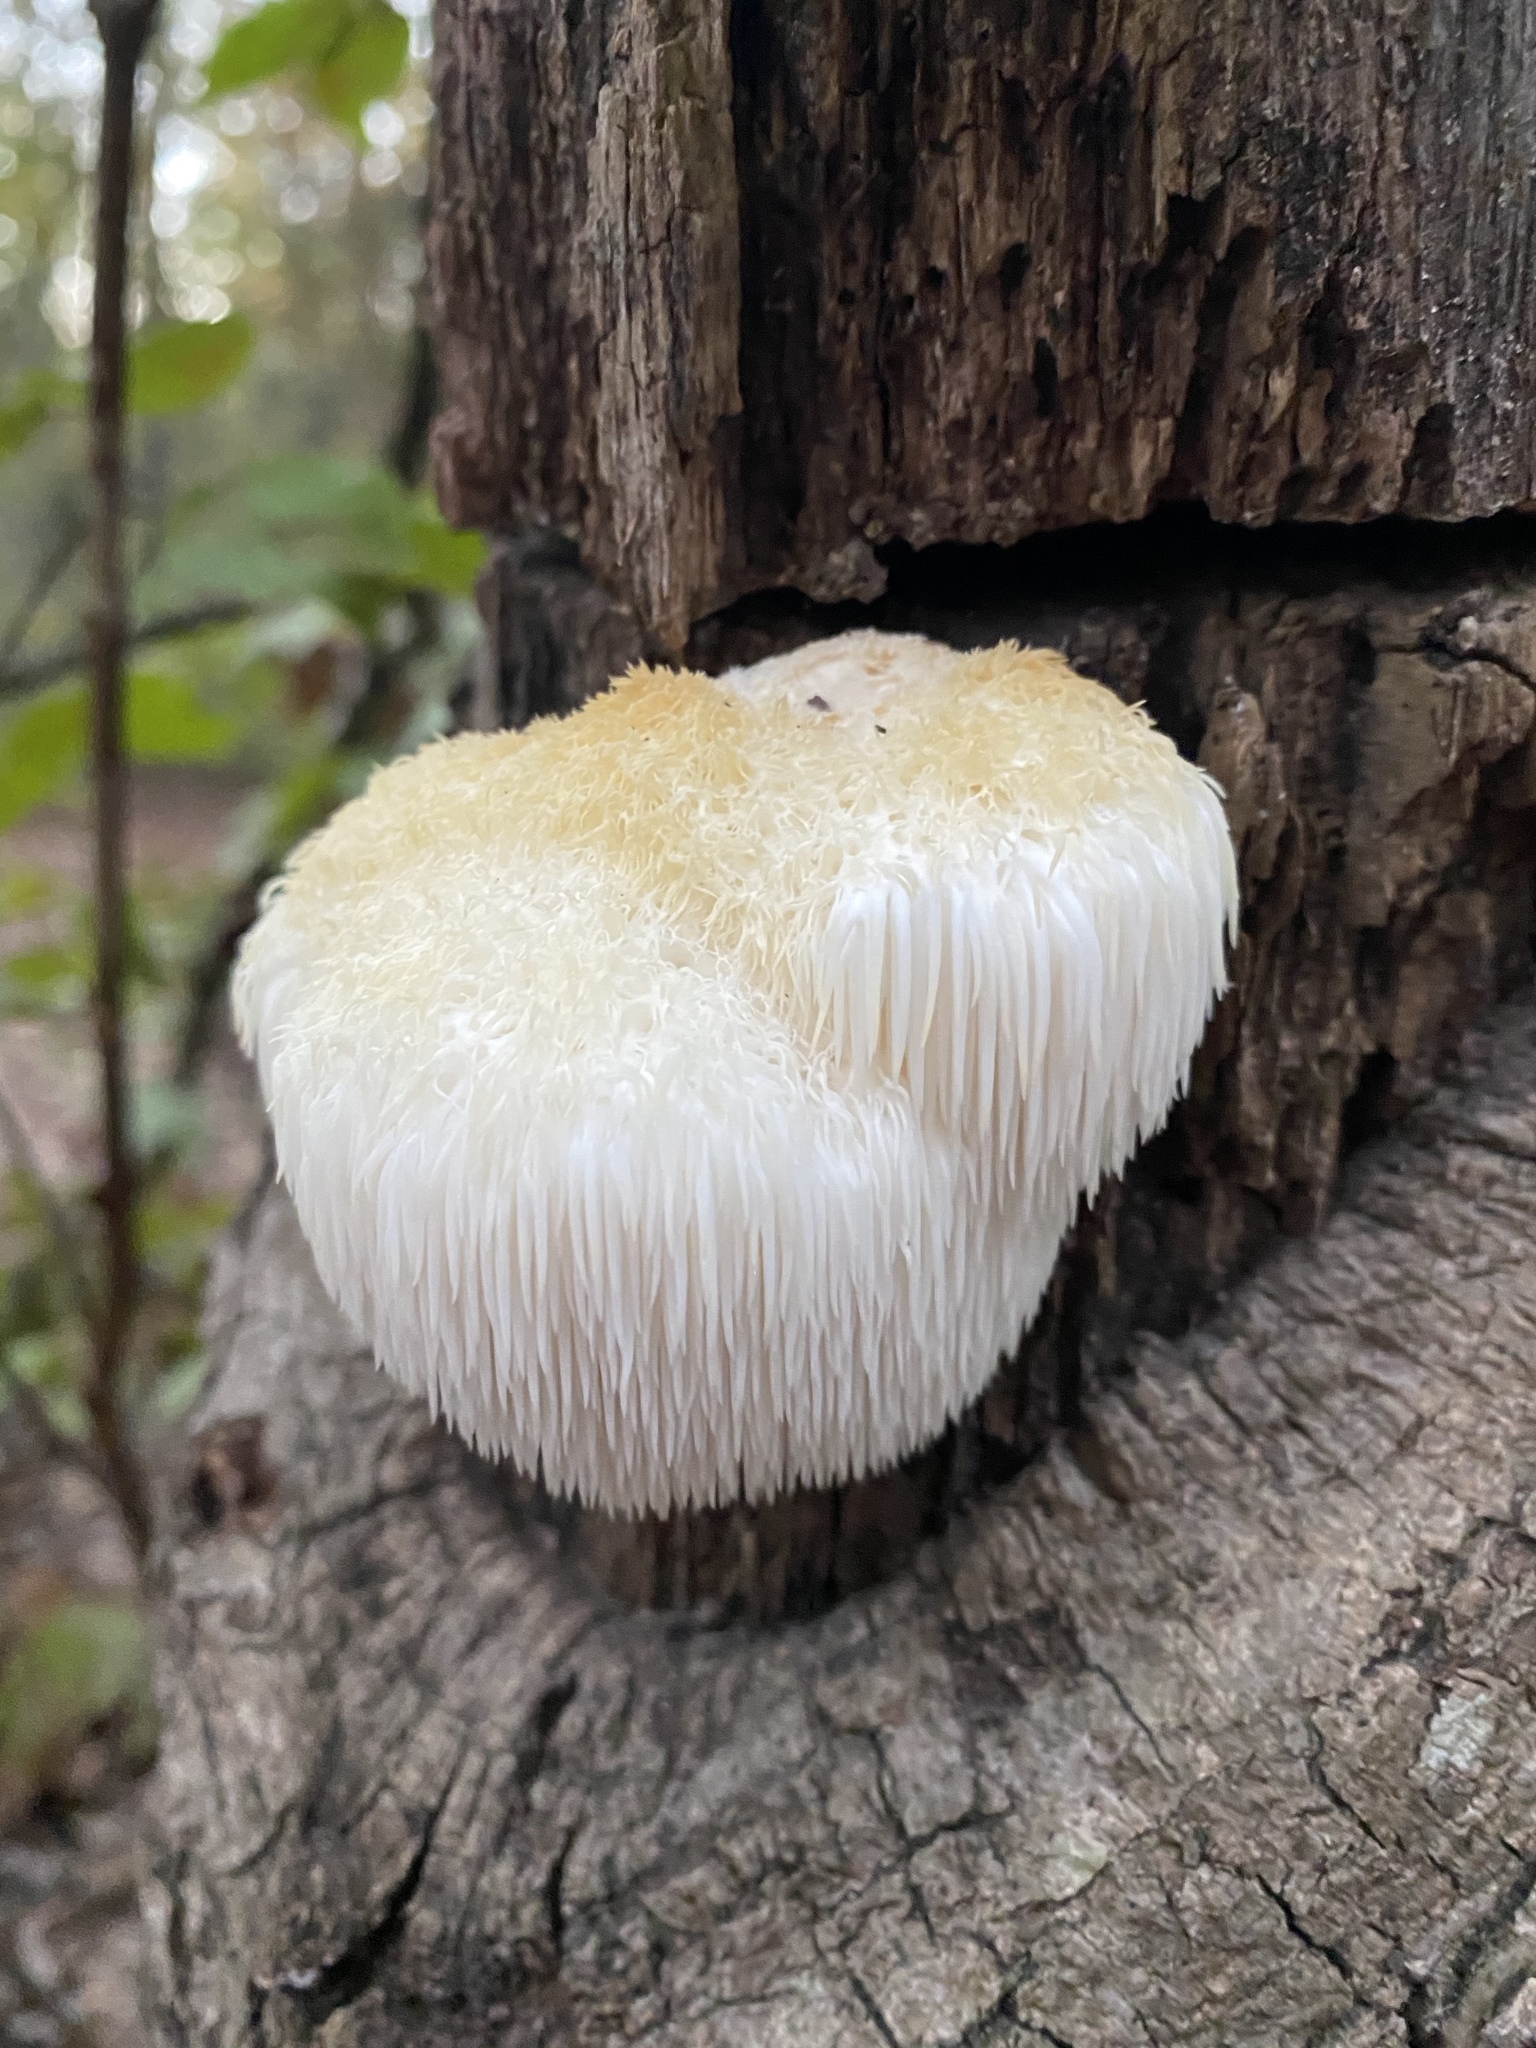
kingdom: Fungi
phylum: Basidiomycota
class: Agaricomycetes
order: Russulales
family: Hericiaceae
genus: Hericium
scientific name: Hericium erinaceus
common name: Bearded tooth
